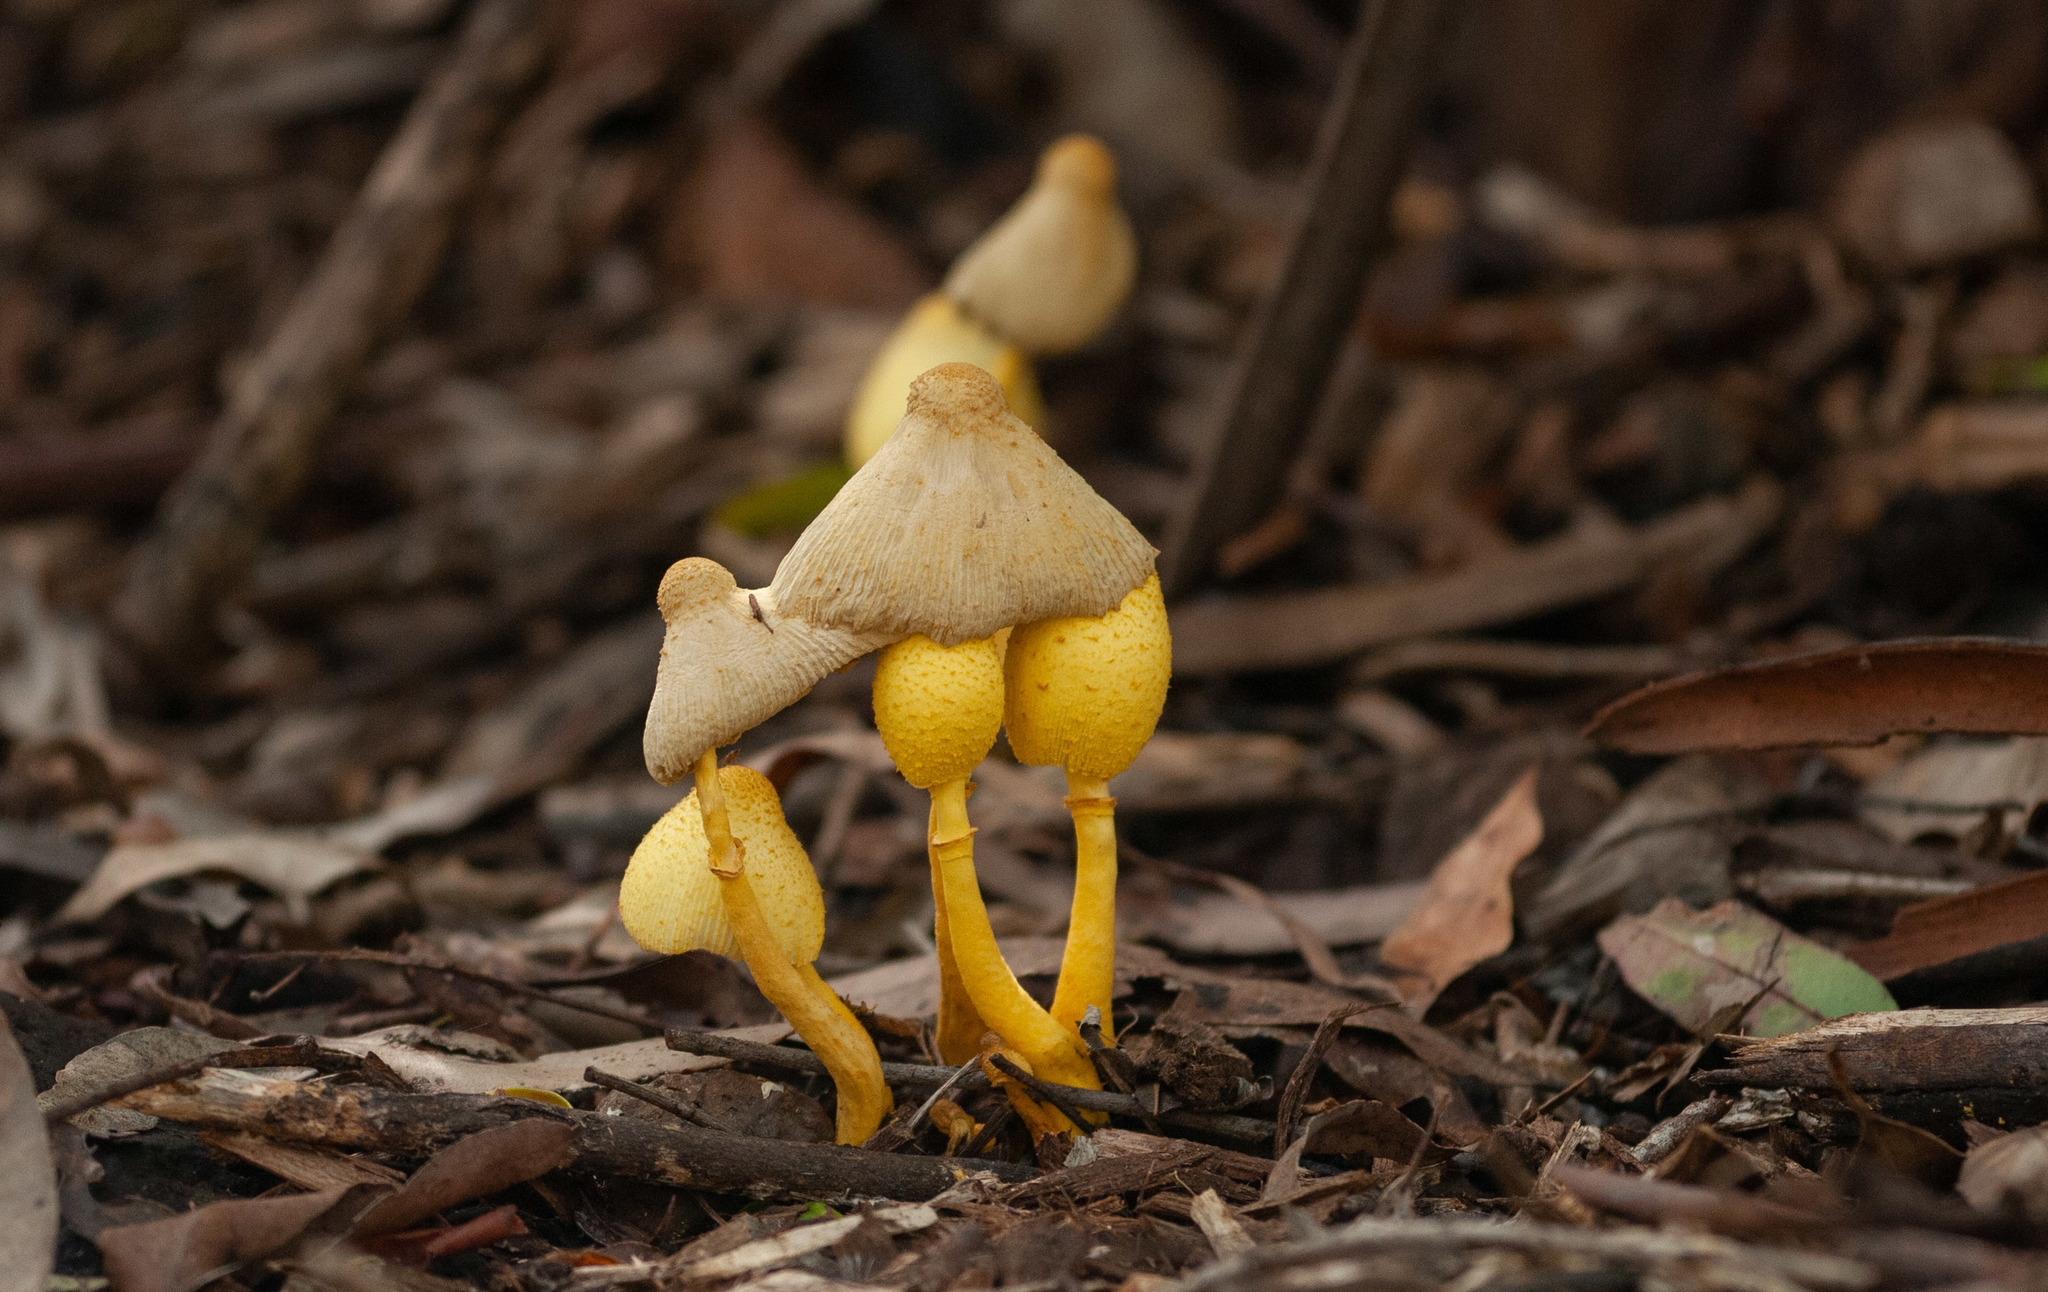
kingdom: Fungi
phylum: Basidiomycota
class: Agaricomycetes
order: Agaricales
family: Agaricaceae
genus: Leucocoprinus
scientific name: Leucocoprinus birnbaumii
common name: Plantpot dapperling
